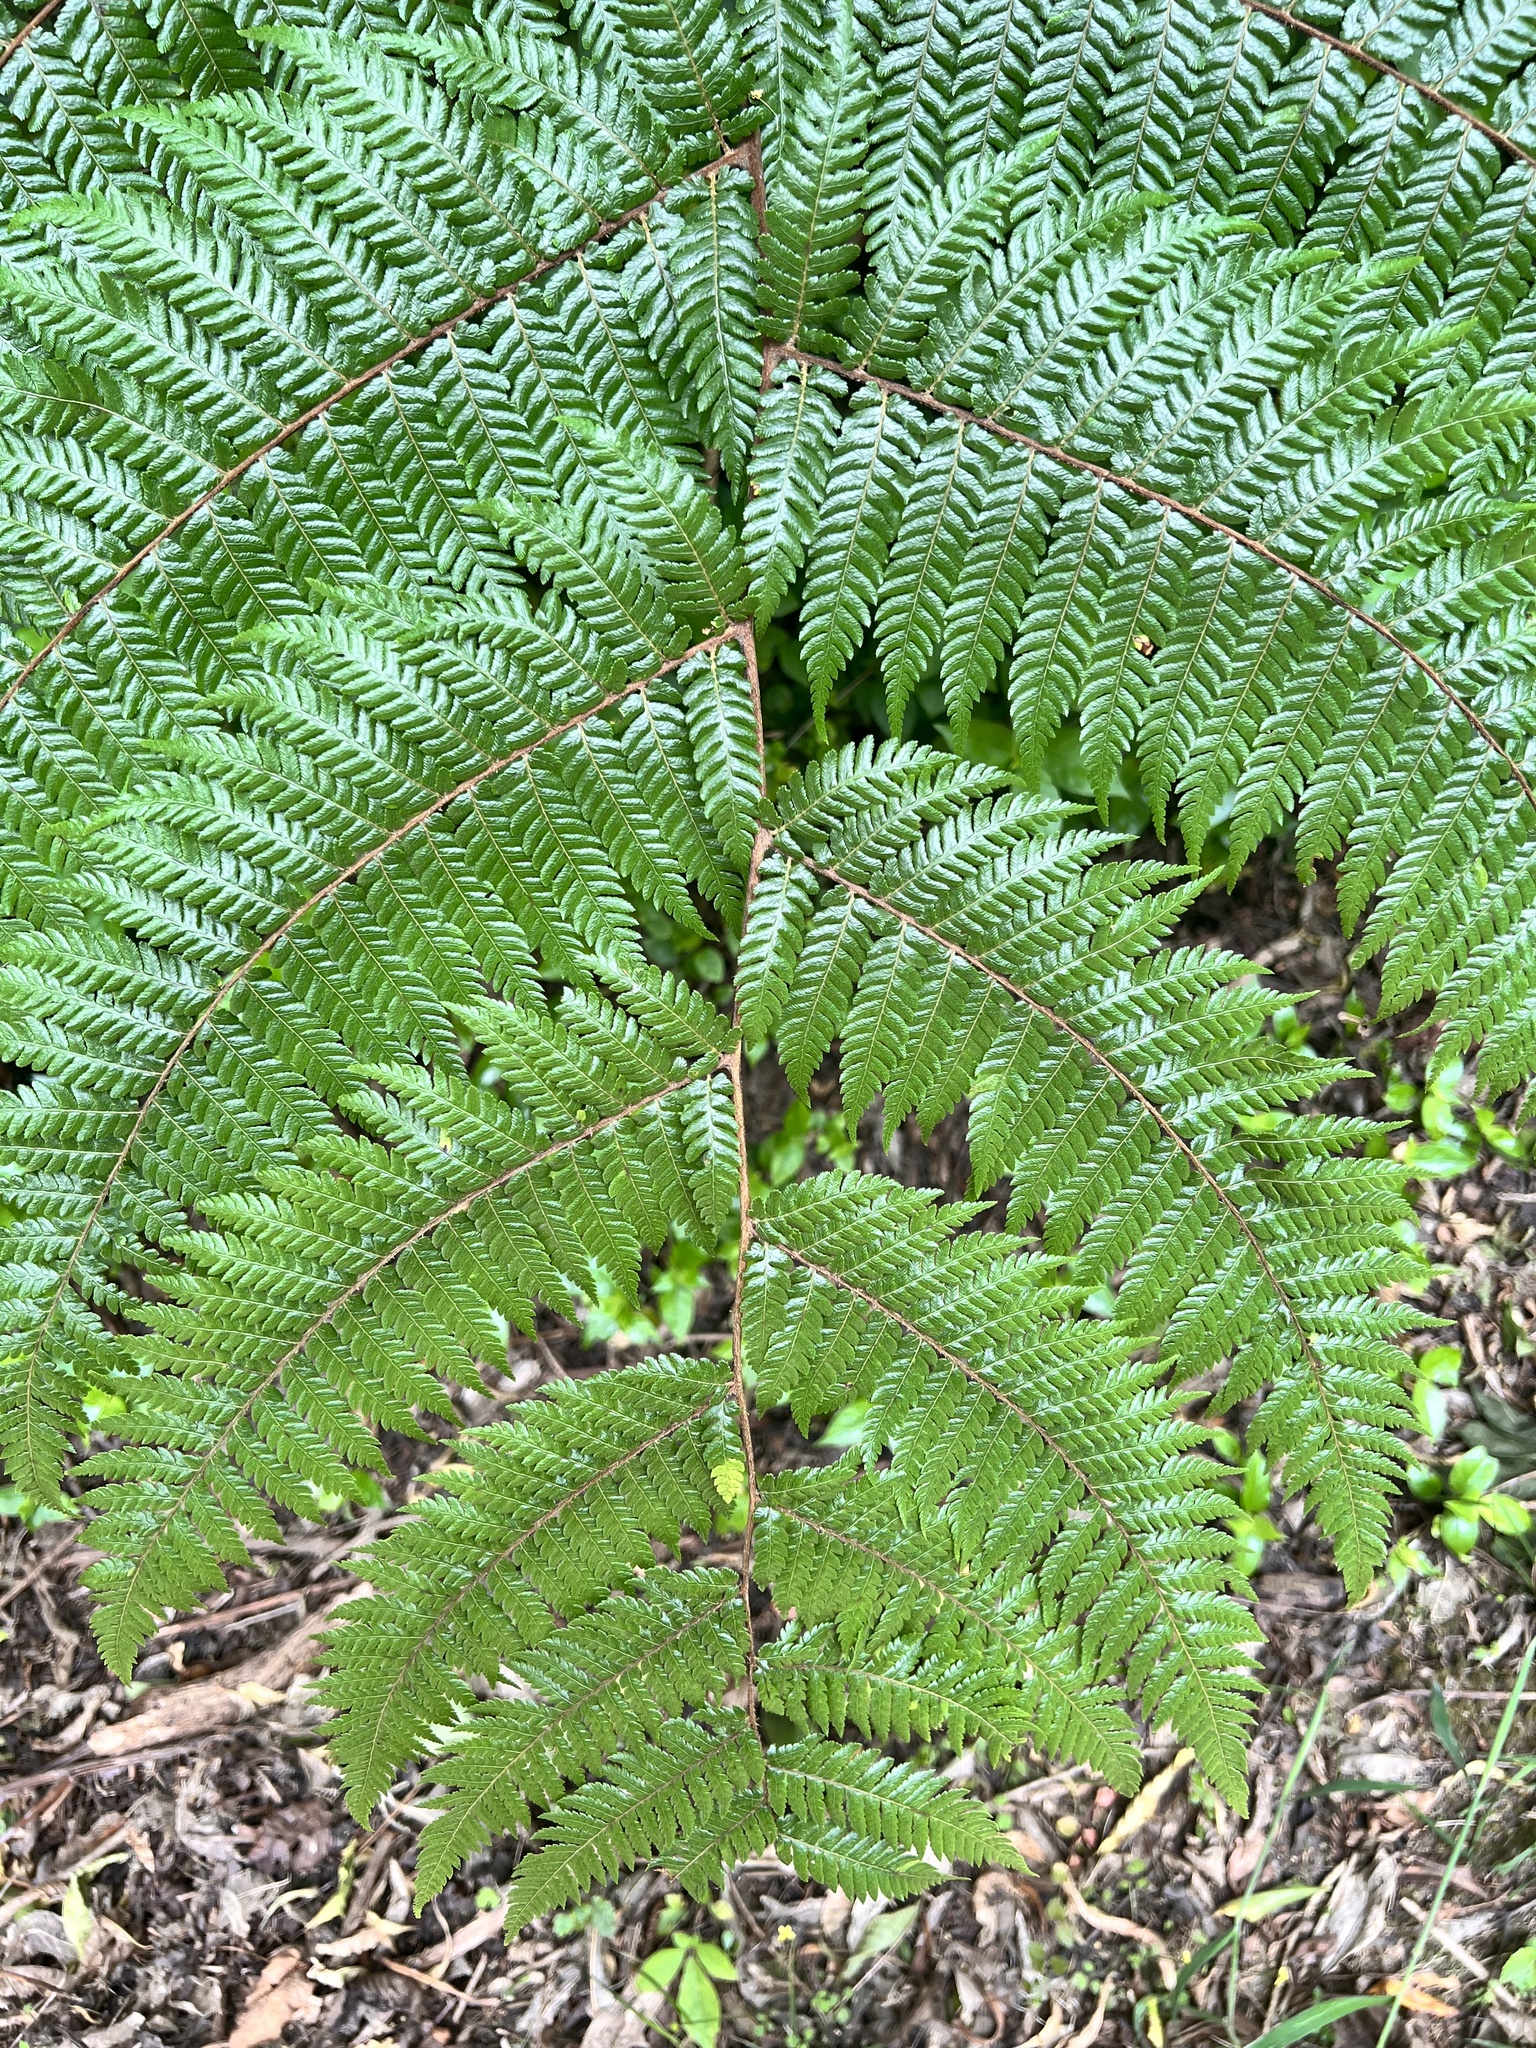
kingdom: Plantae
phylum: Tracheophyta
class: Polypodiopsida
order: Cyatheales
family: Cyatheaceae
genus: Alsophila
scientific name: Alsophila smithii
